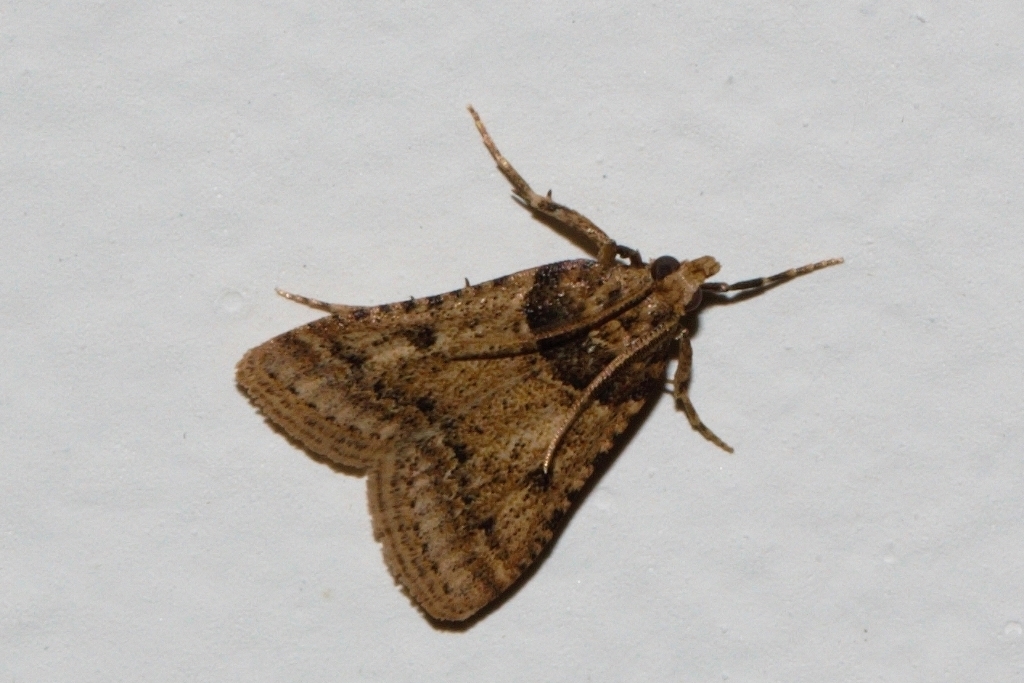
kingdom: Animalia
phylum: Arthropoda
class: Insecta
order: Lepidoptera
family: Pyralidae
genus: Philotis
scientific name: Philotis basalis
